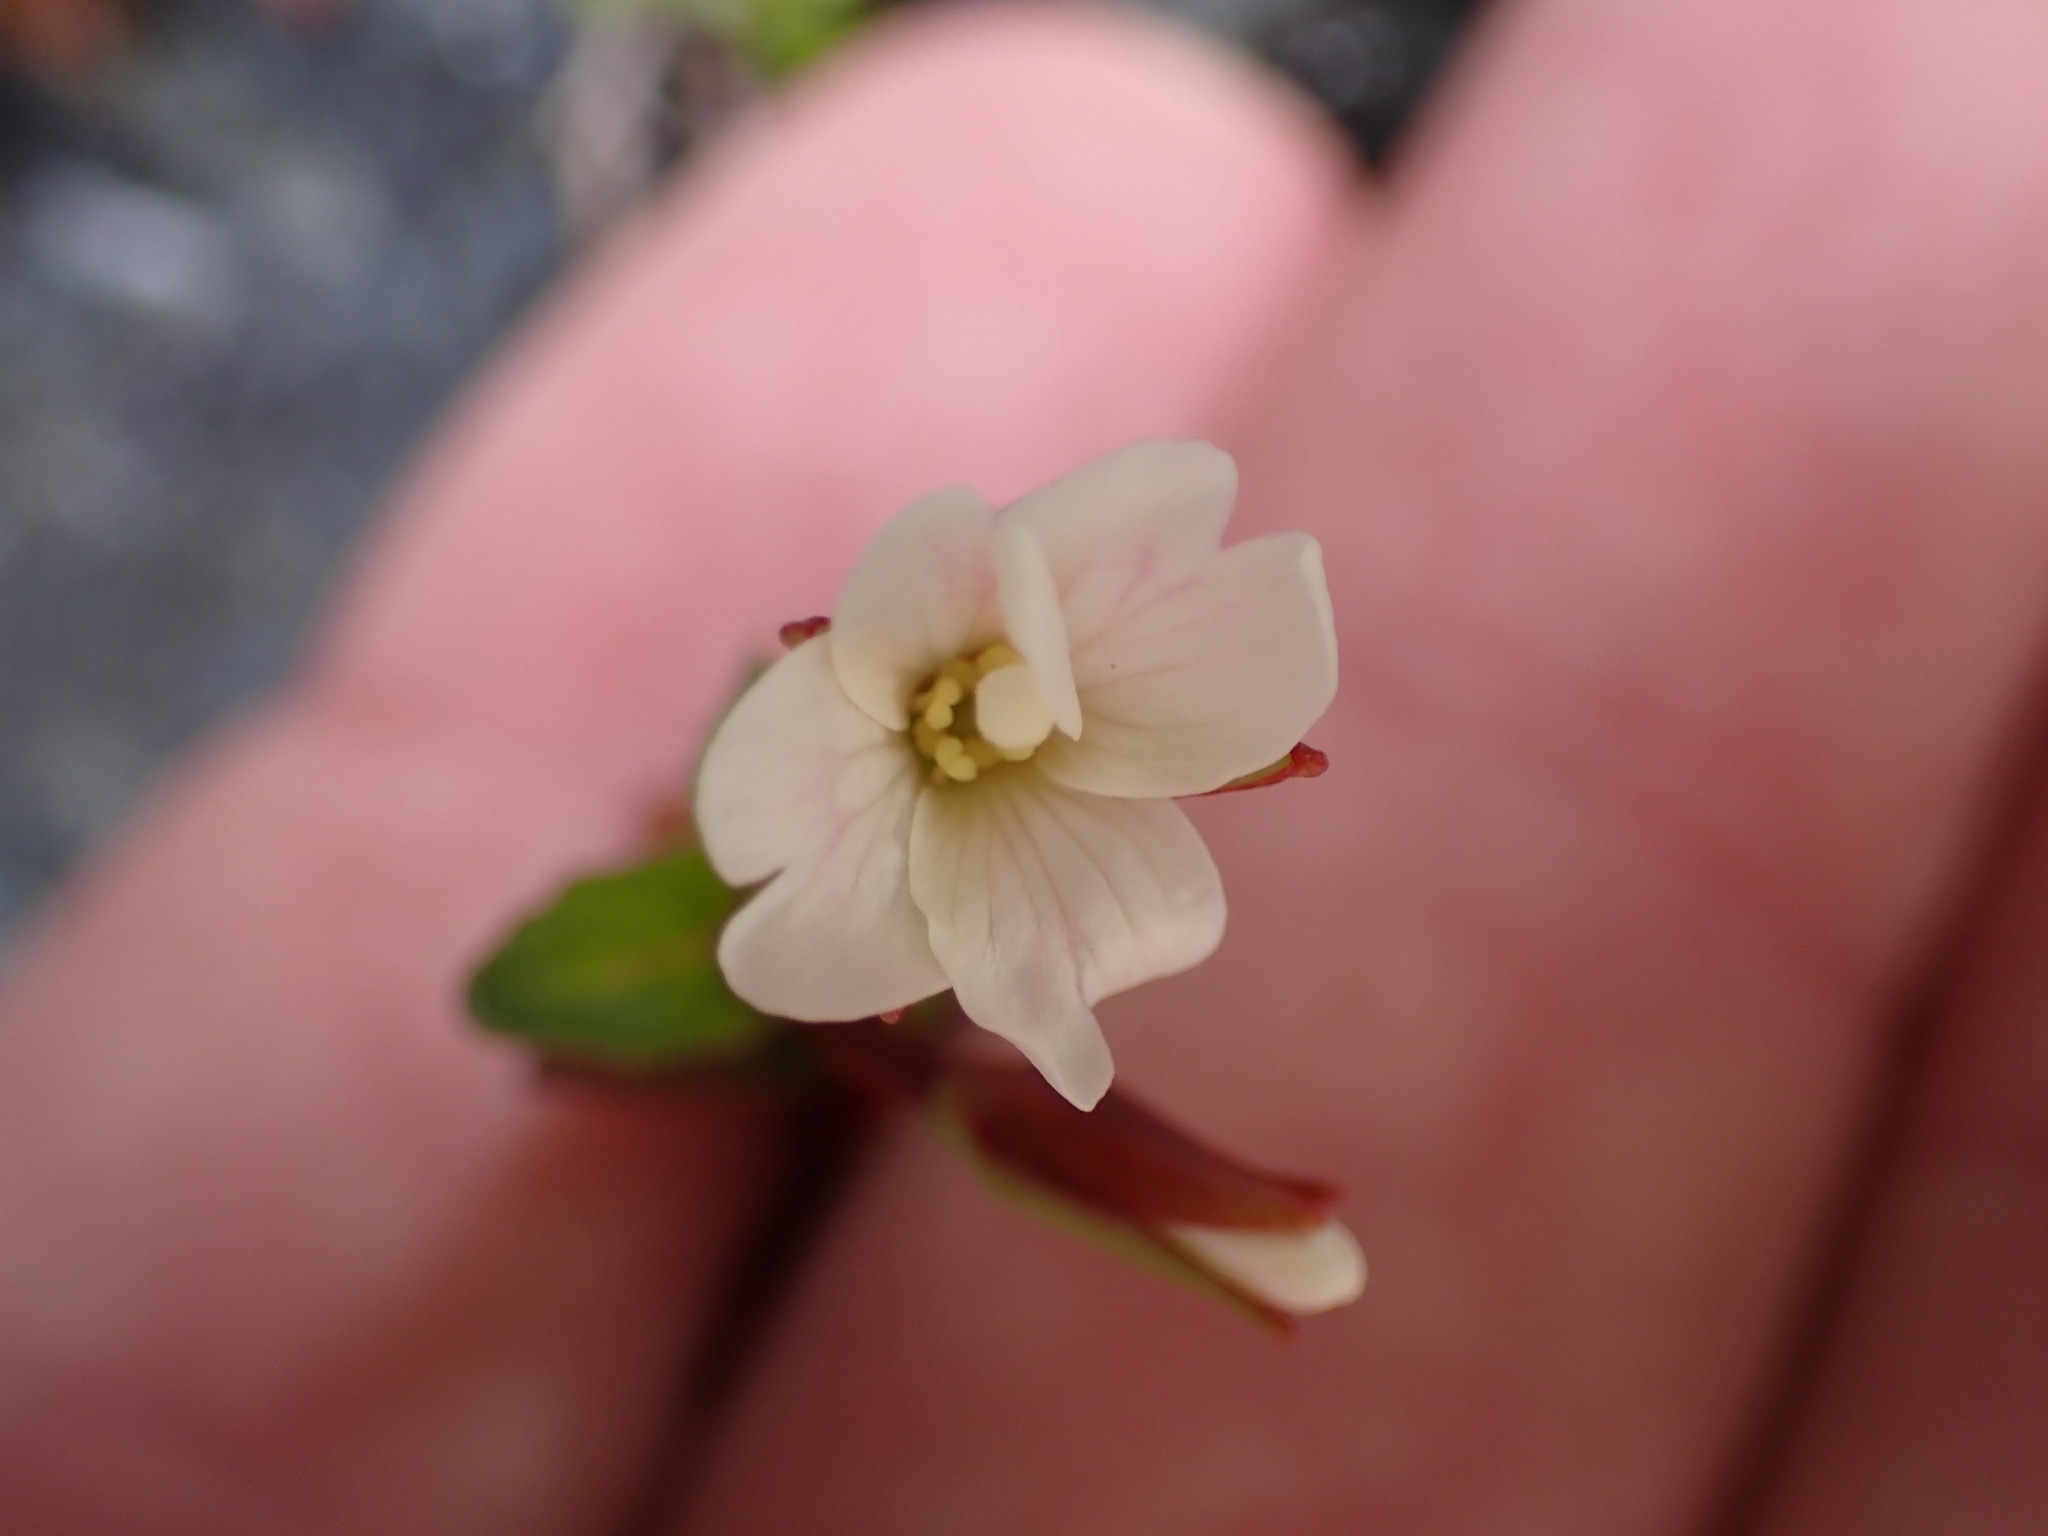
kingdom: Plantae
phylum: Tracheophyta
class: Magnoliopsida
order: Myrtales
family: Onagraceae
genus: Epilobium
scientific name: Epilobium glabellum
